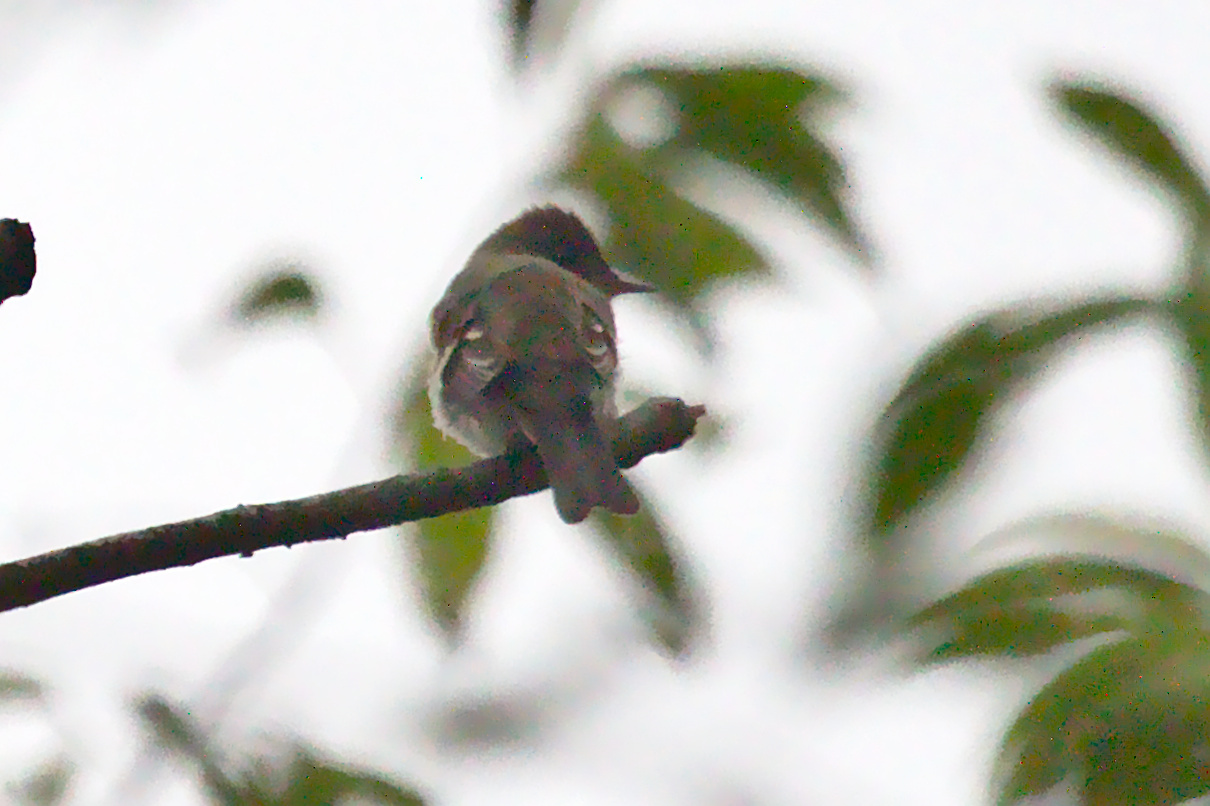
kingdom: Animalia
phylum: Chordata
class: Aves
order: Passeriformes
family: Tyrannidae
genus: Contopus
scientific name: Contopus virens
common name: Eastern wood-pewee
